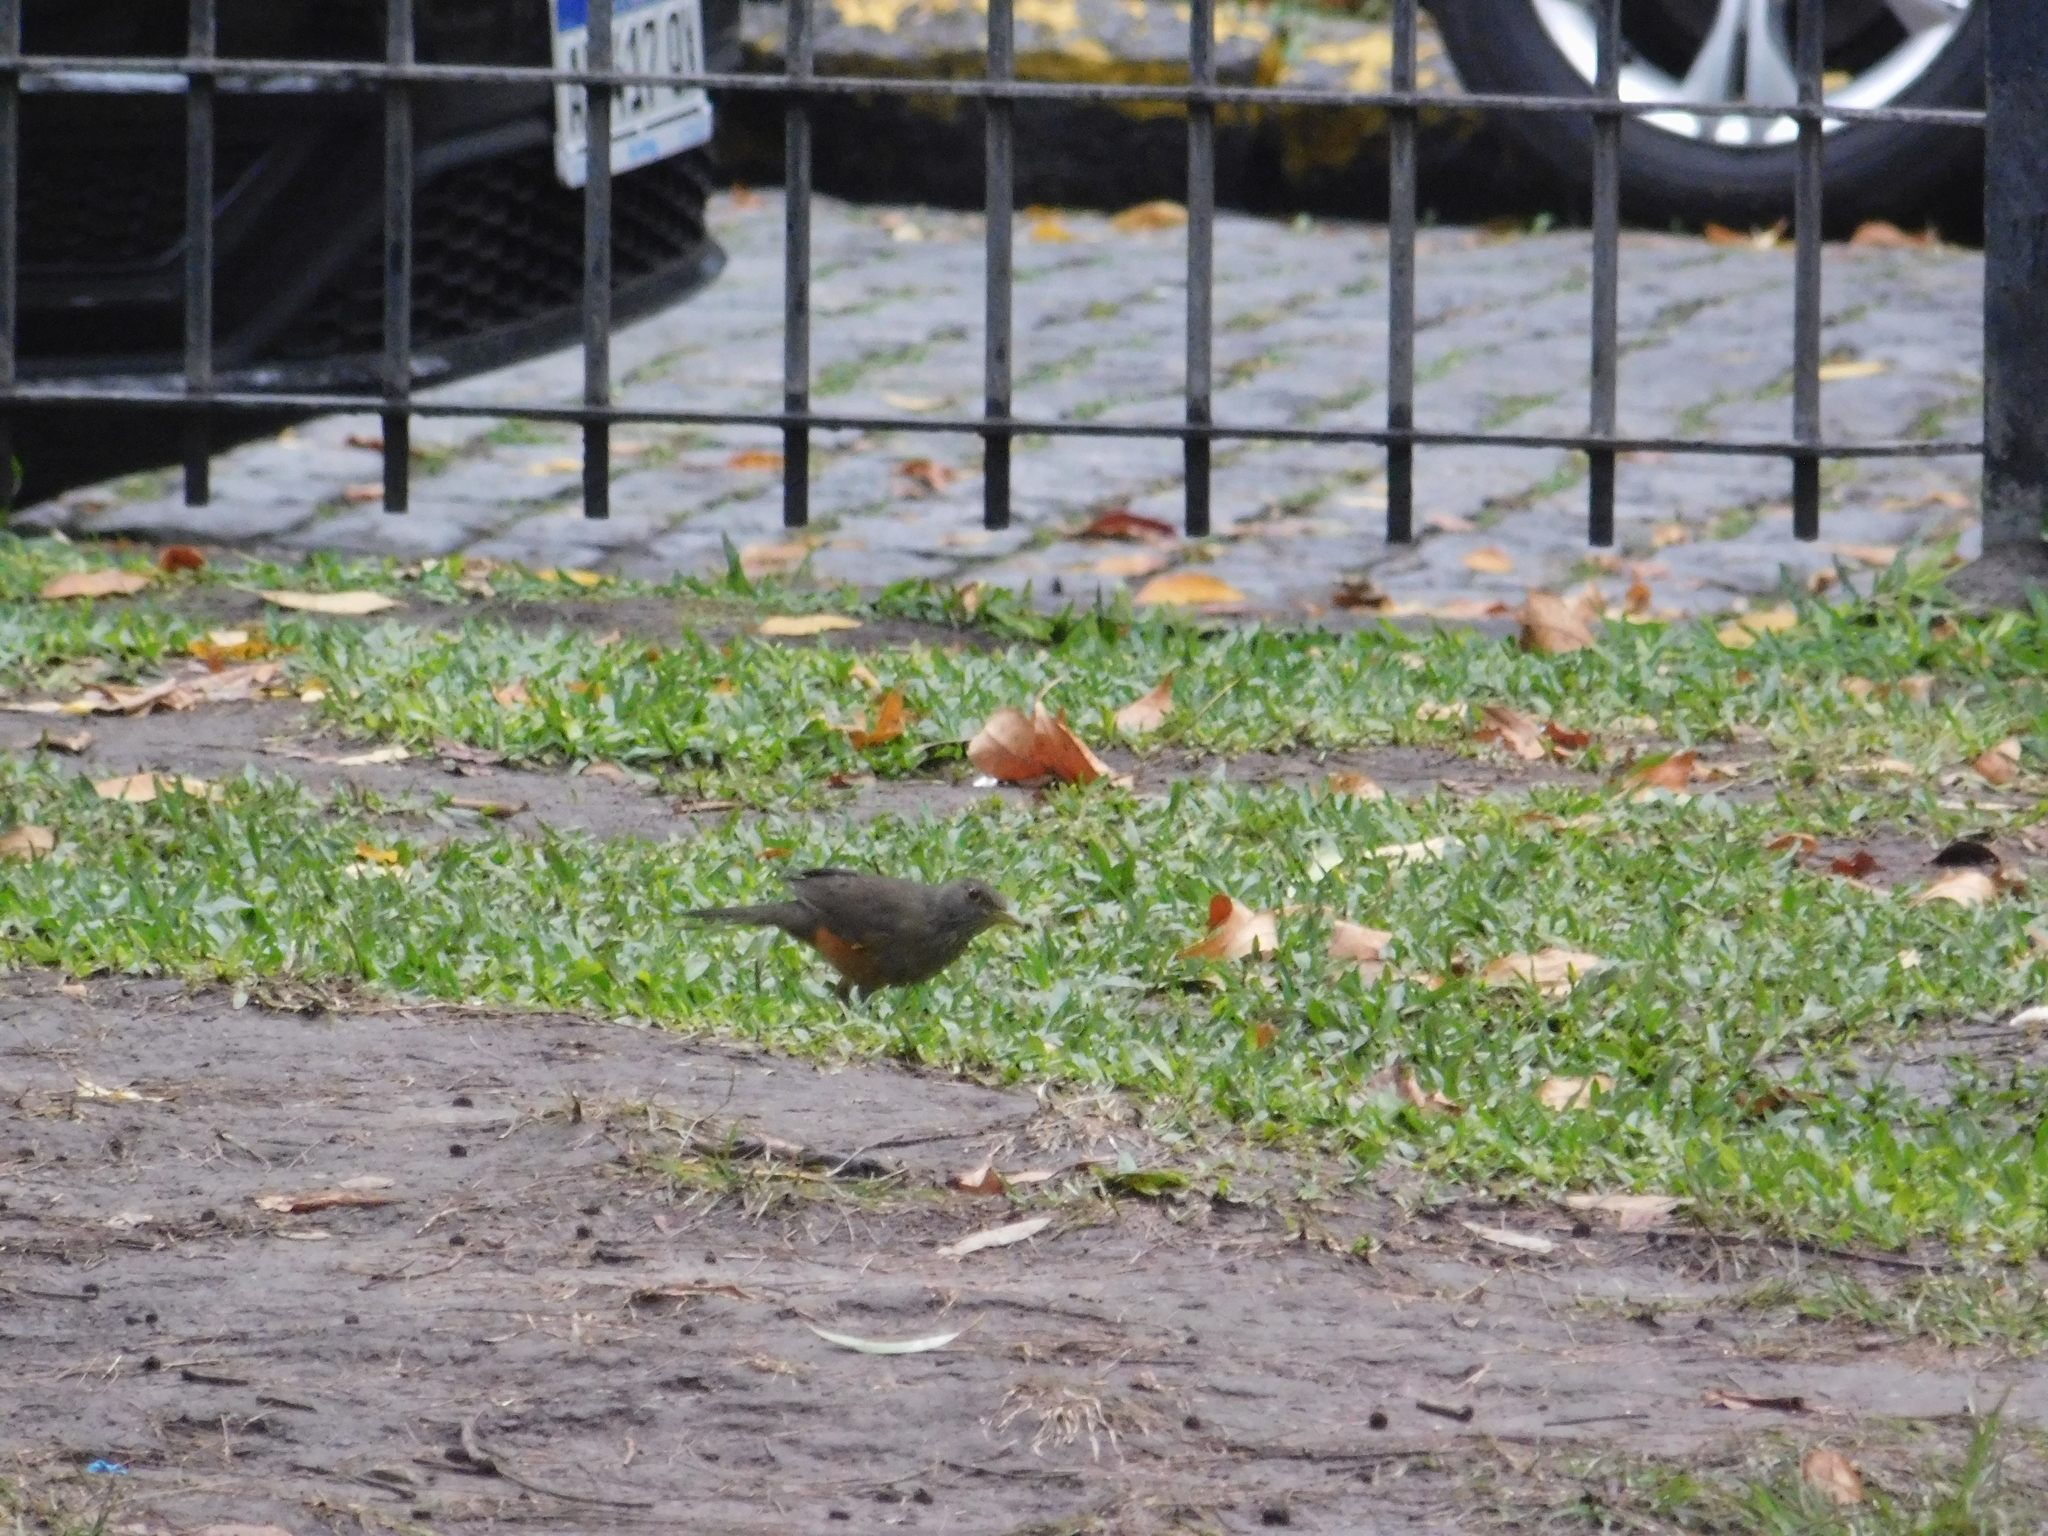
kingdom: Animalia
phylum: Chordata
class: Aves
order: Passeriformes
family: Turdidae
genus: Turdus
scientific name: Turdus rufiventris
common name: Rufous-bellied thrush
